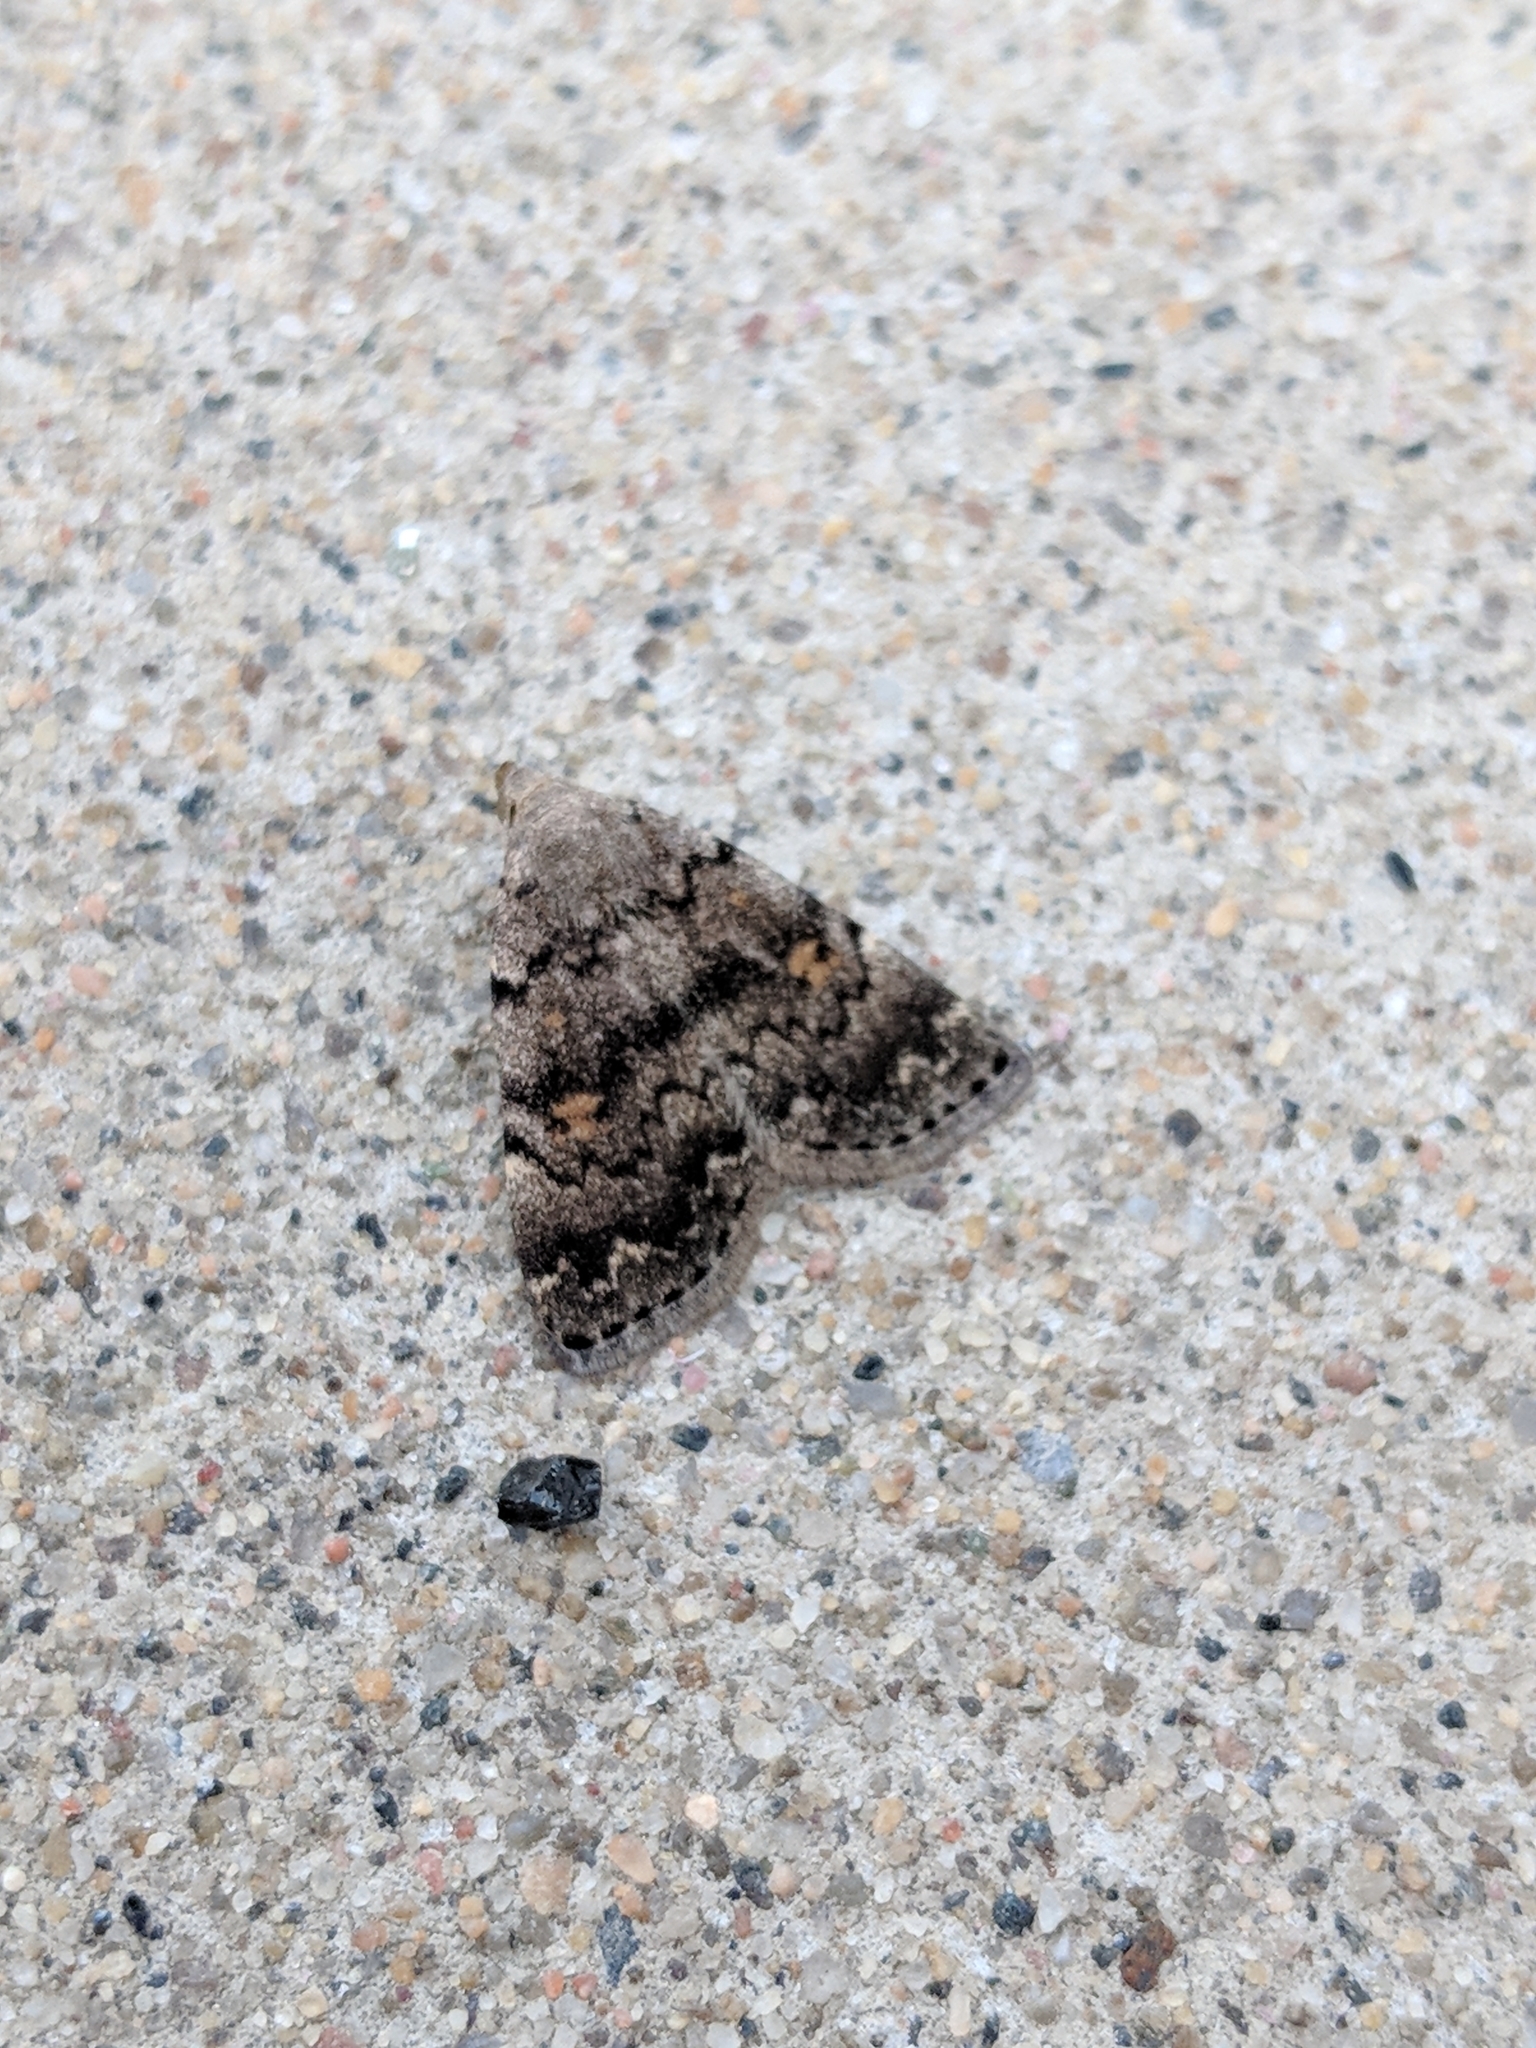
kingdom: Animalia
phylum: Arthropoda
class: Insecta
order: Lepidoptera
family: Erebidae
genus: Idia
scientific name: Idia aemula
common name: Common idia moth
